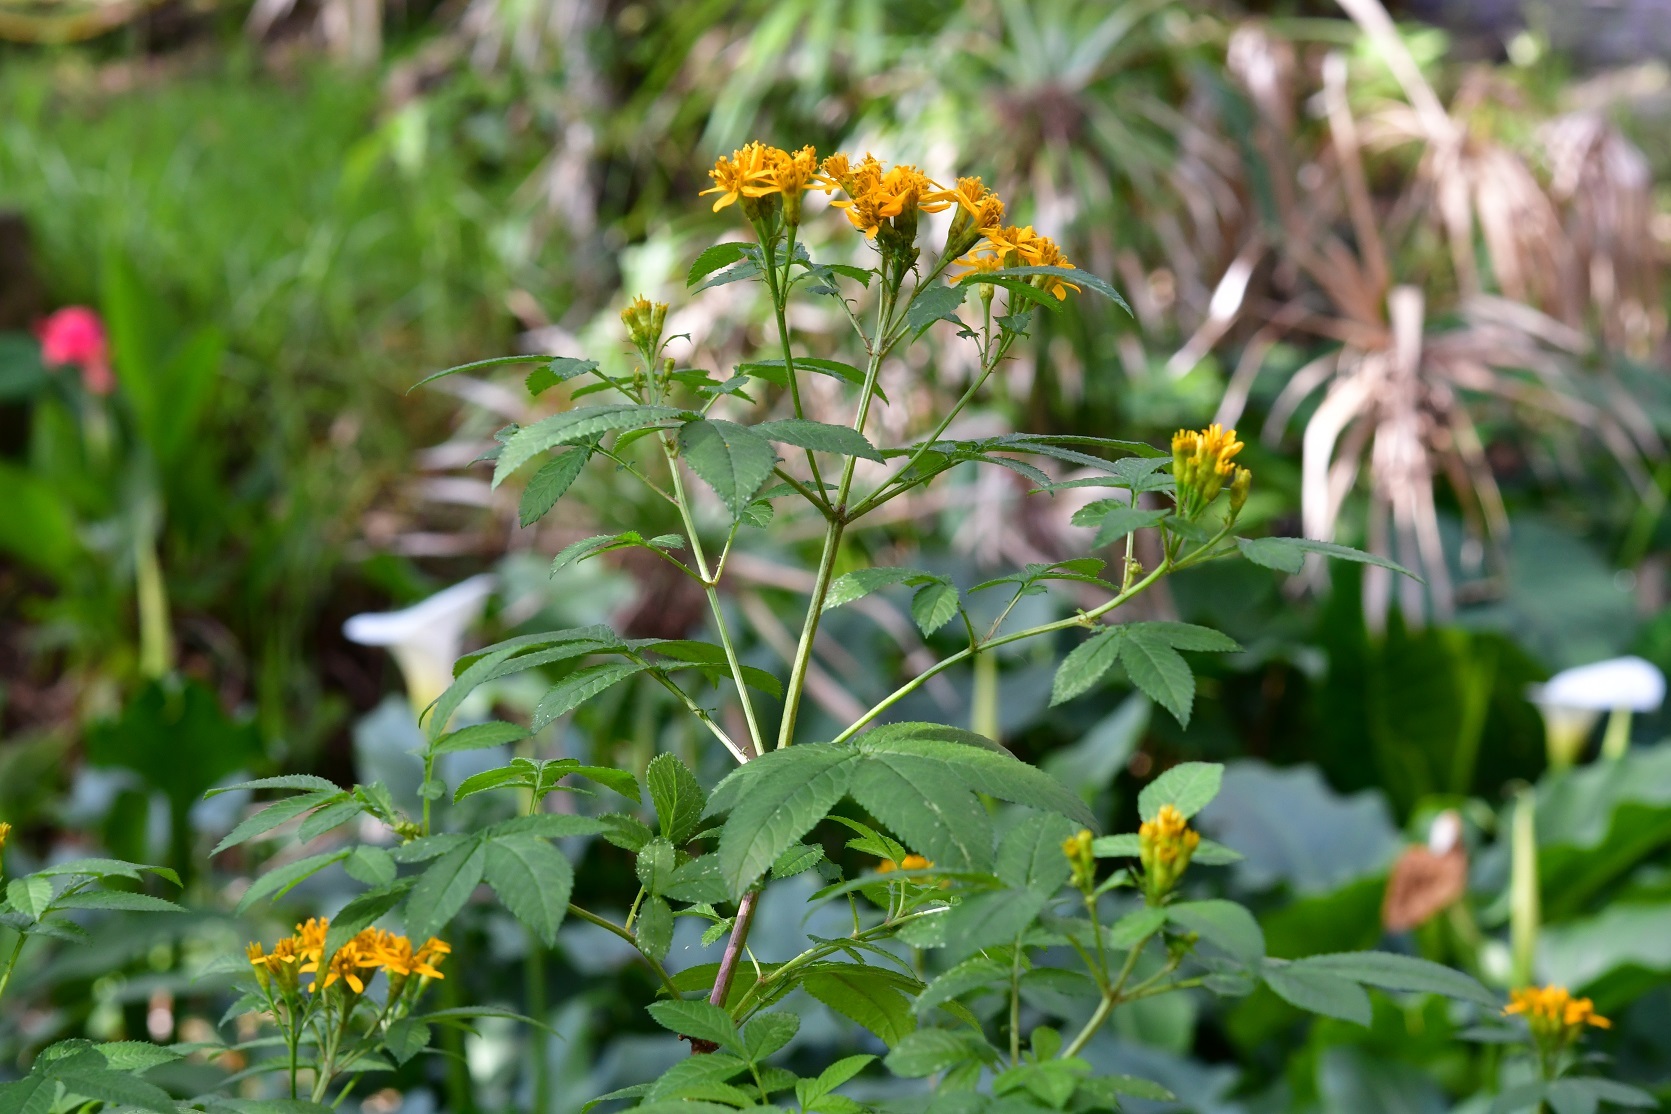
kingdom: Plantae
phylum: Tracheophyta
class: Magnoliopsida
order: Asterales
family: Asteraceae
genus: Tagetes
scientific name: Tagetes nelsonii
